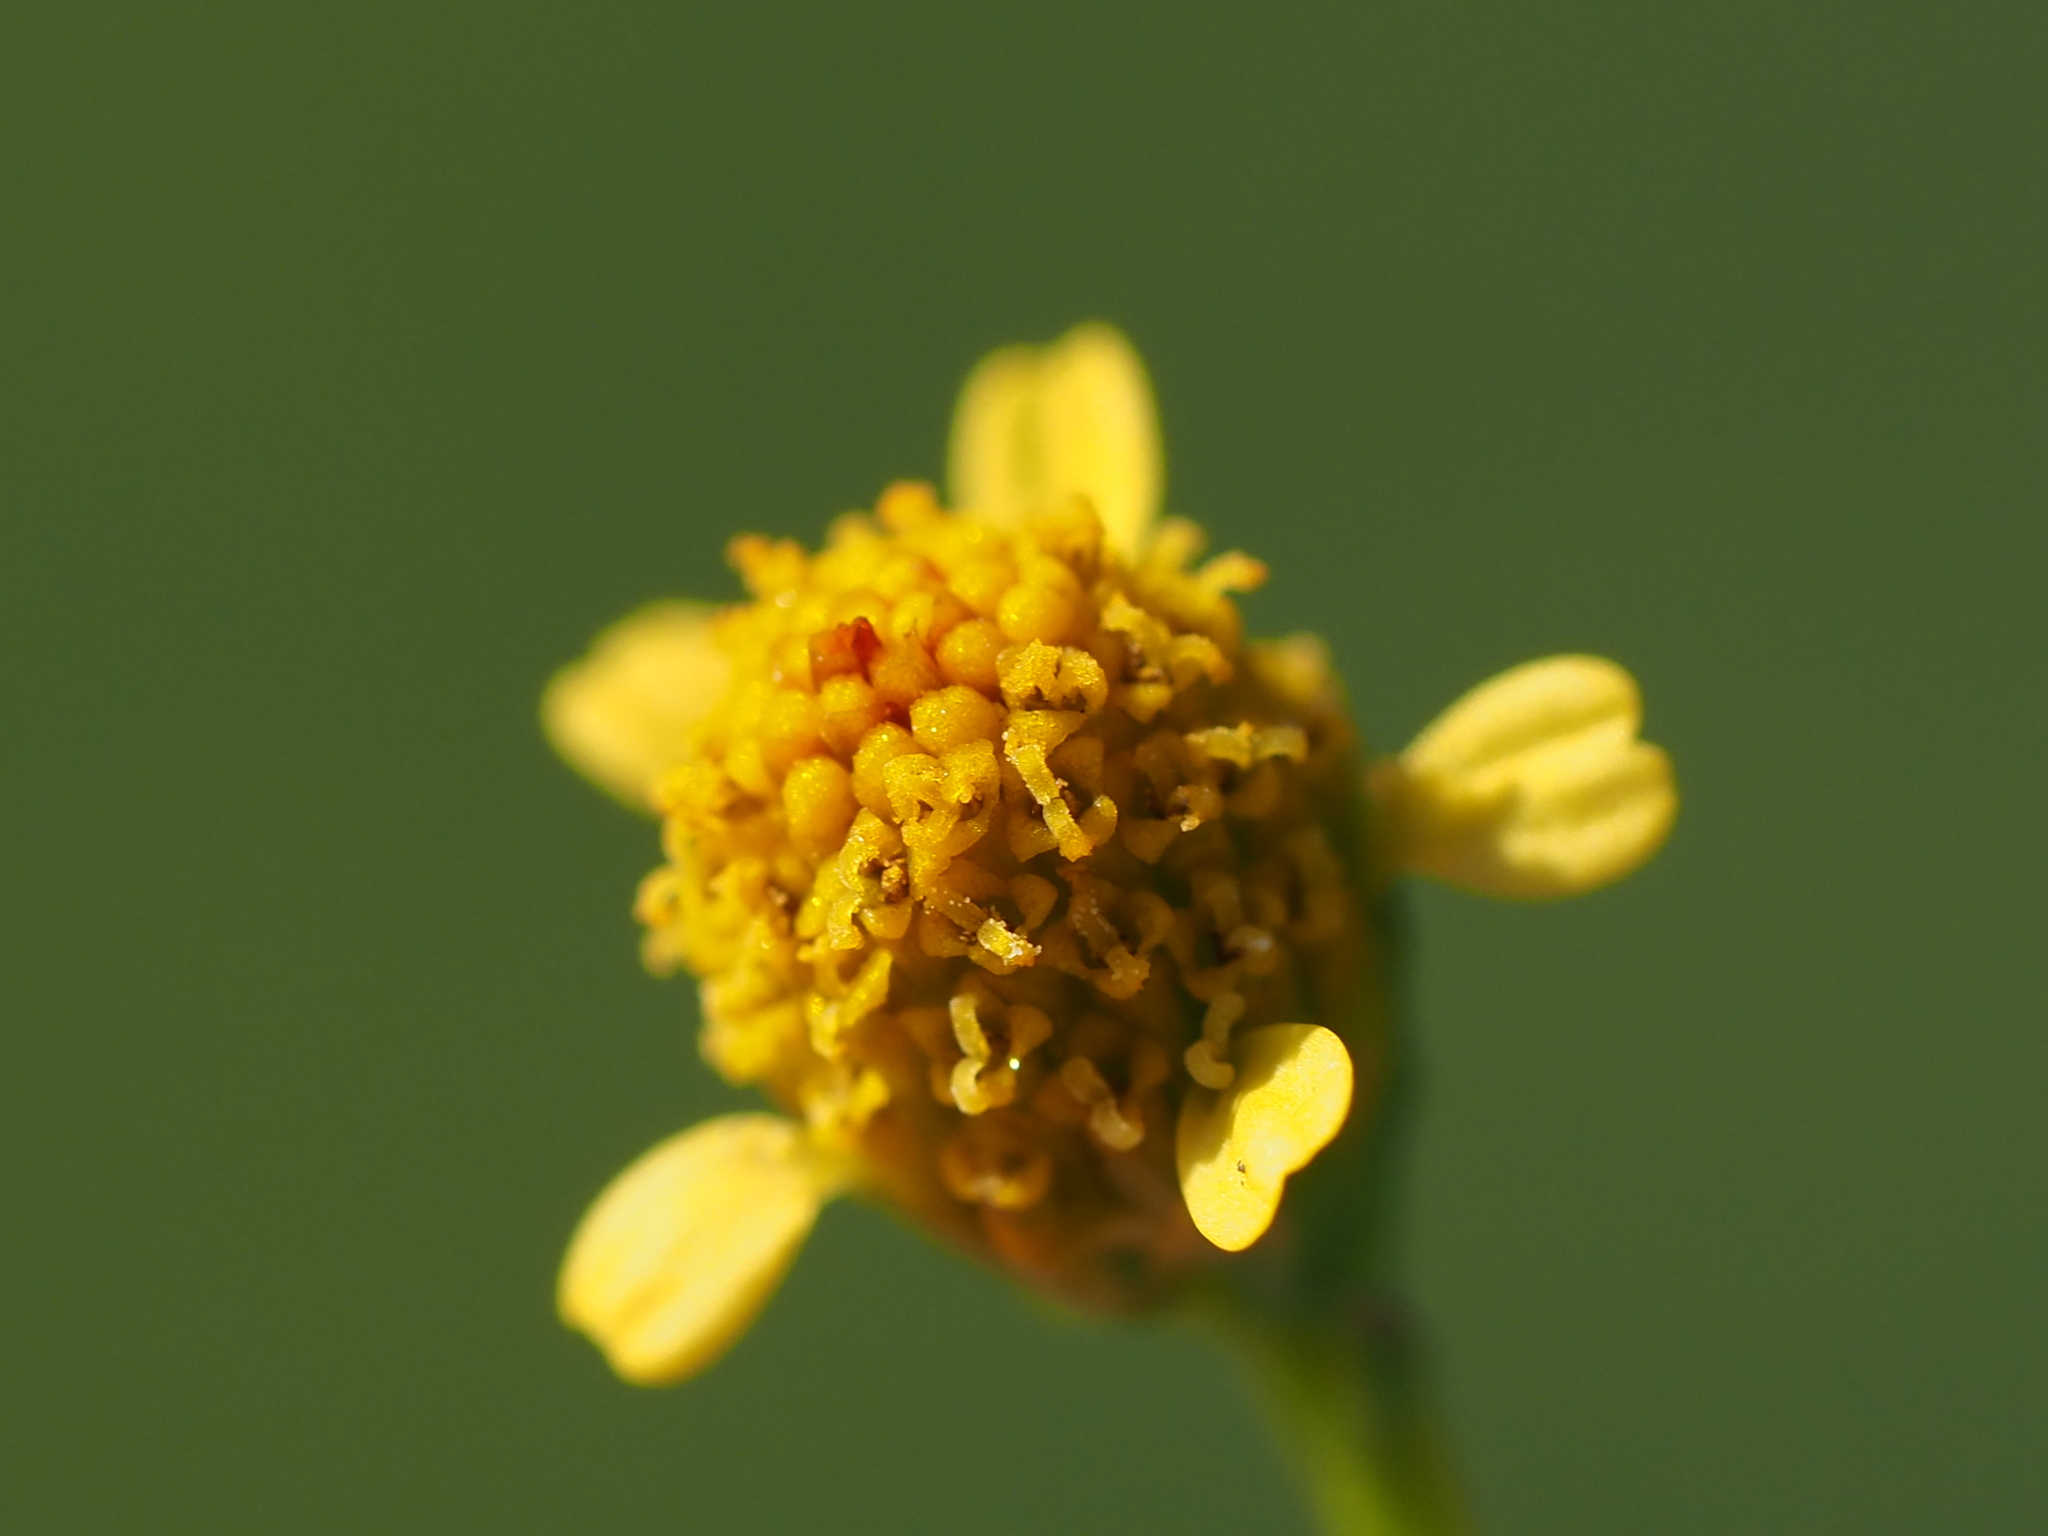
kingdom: Plantae
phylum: Tracheophyta
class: Magnoliopsida
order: Asterales
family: Asteraceae
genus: Acmella
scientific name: Acmella uliginosa
